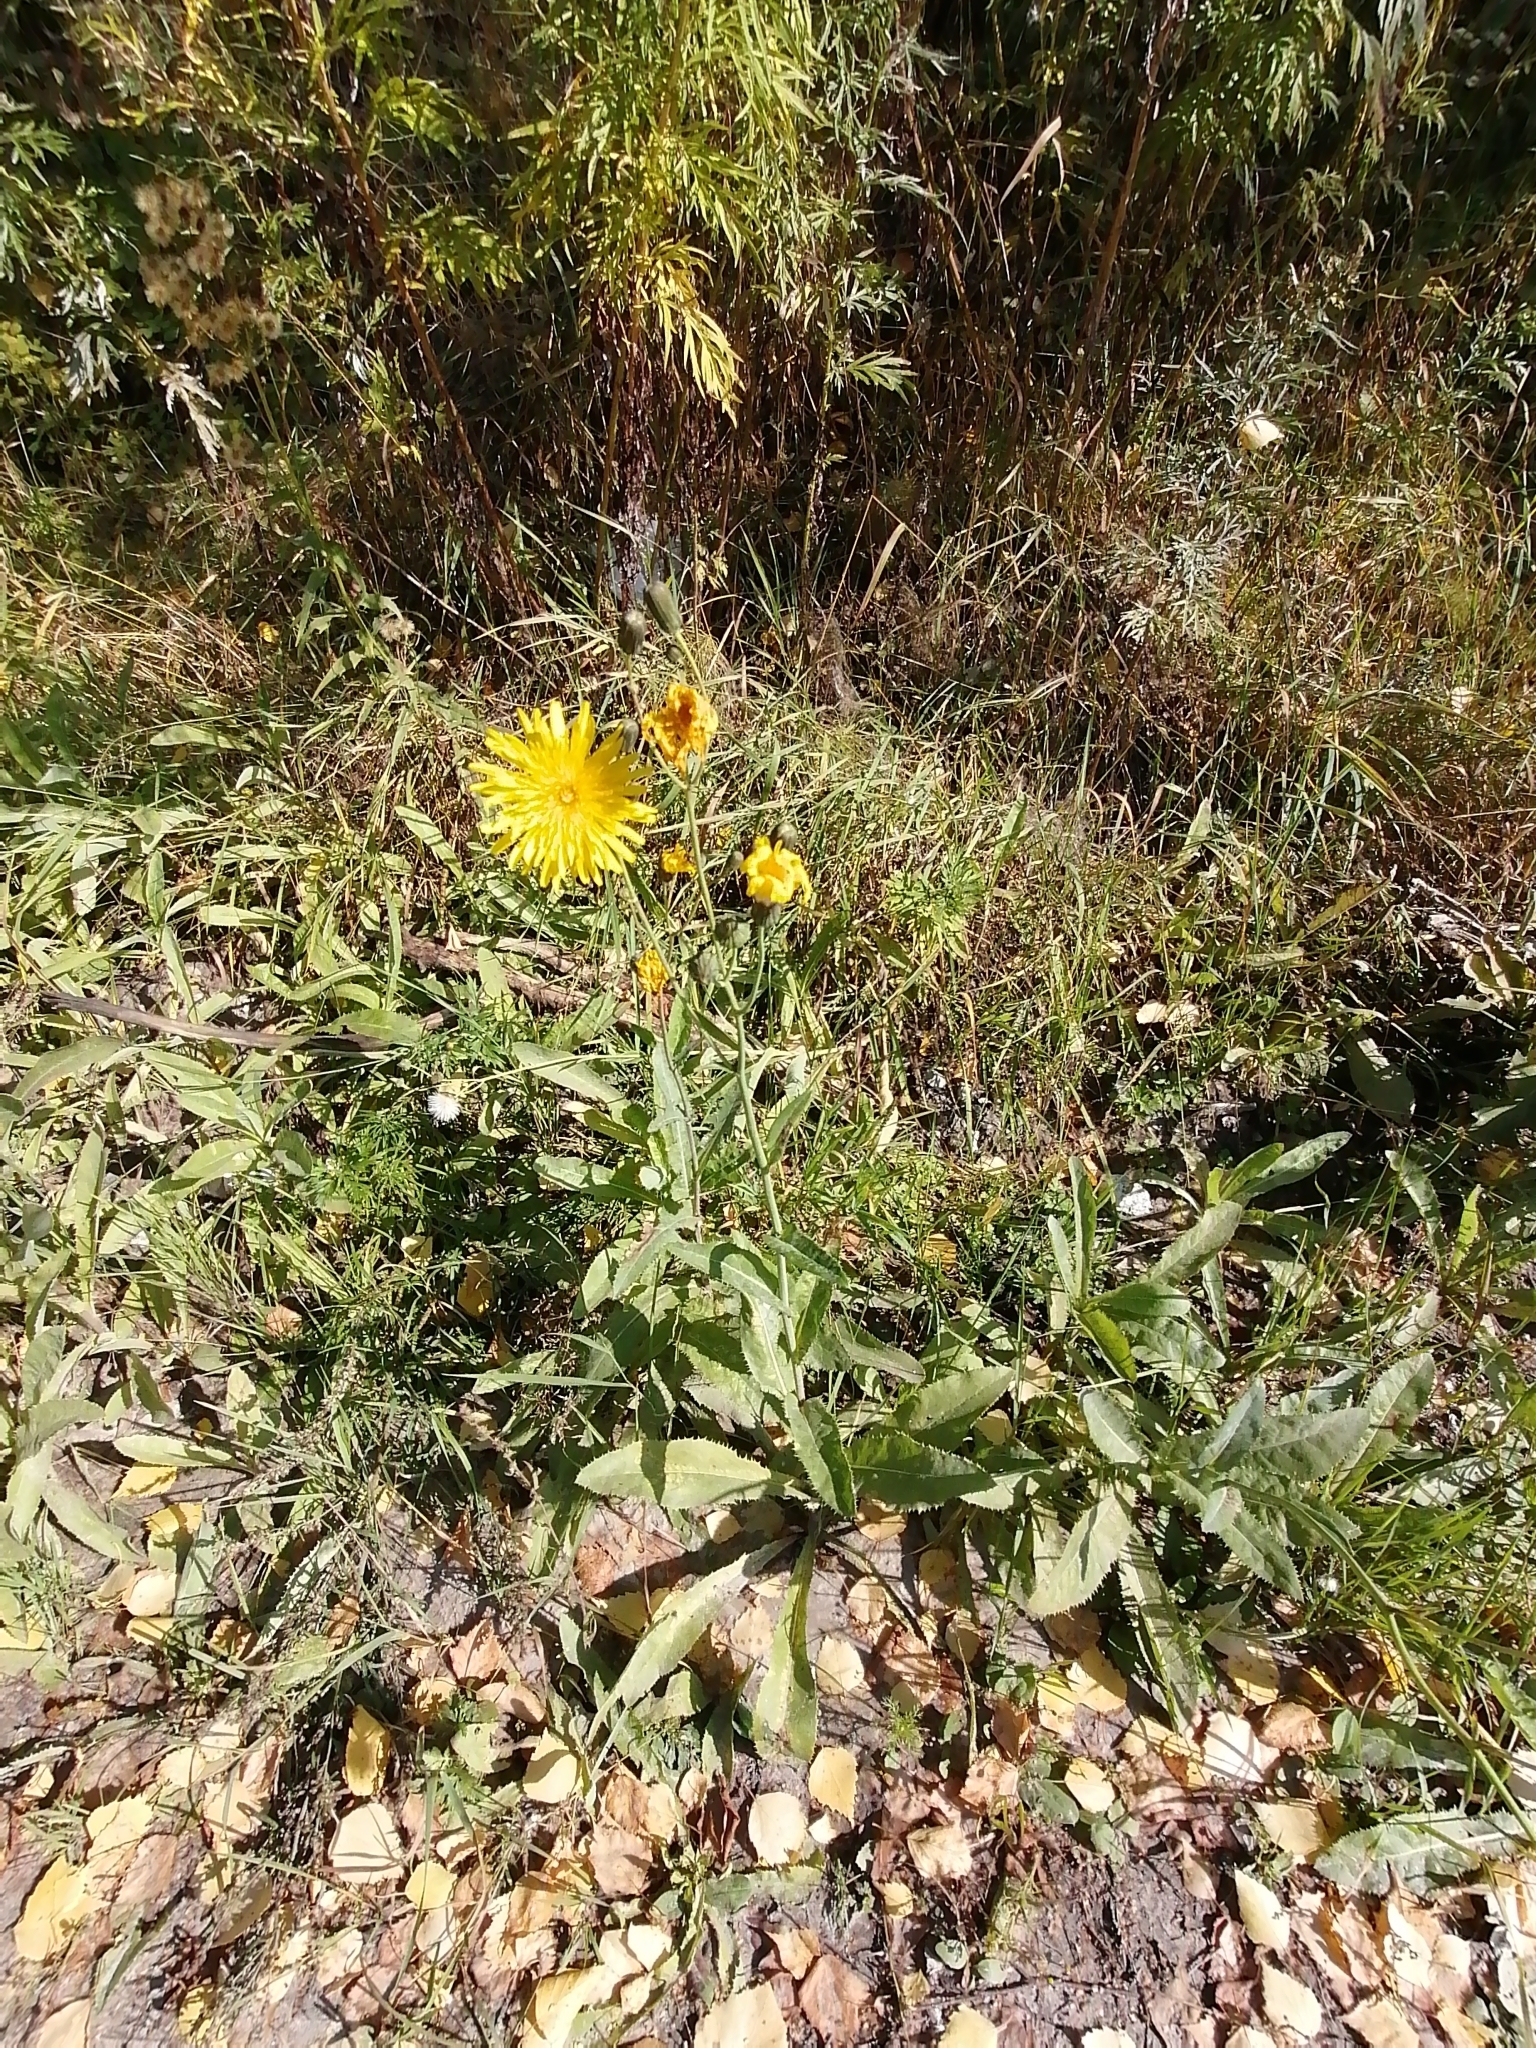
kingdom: Plantae
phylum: Tracheophyta
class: Magnoliopsida
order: Asterales
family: Asteraceae
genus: Sonchus
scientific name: Sonchus arvensis
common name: Perennial sow-thistle
